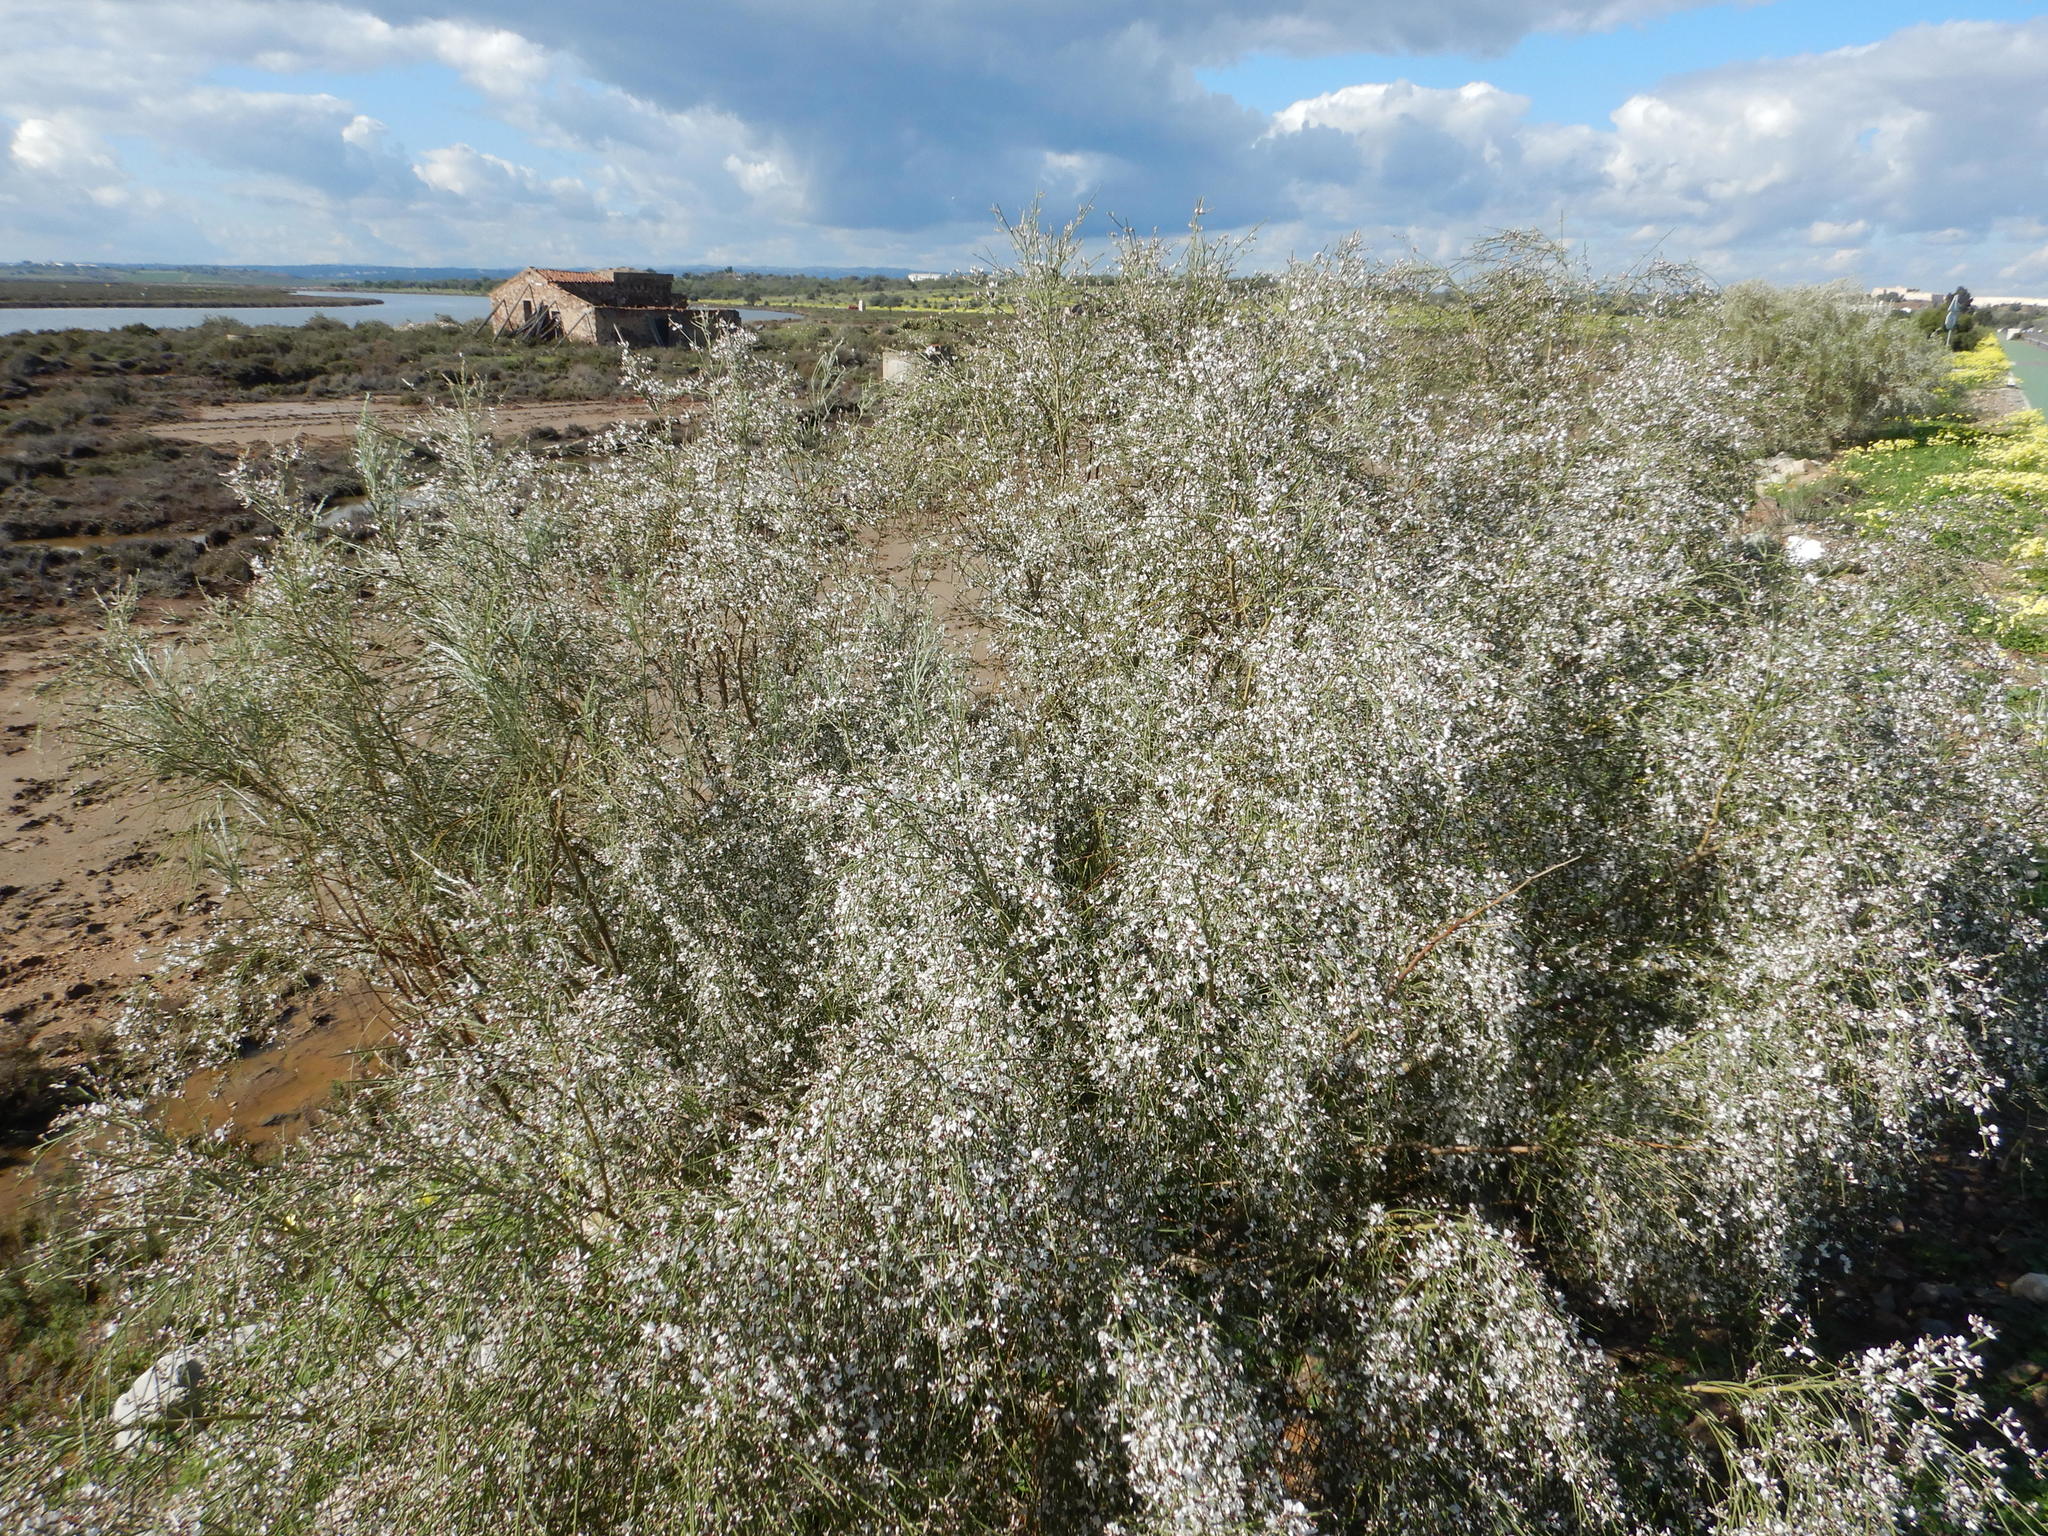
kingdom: Plantae
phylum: Tracheophyta
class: Magnoliopsida
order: Fabales
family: Fabaceae
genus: Retama
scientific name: Retama monosperma
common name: Bridal broom
